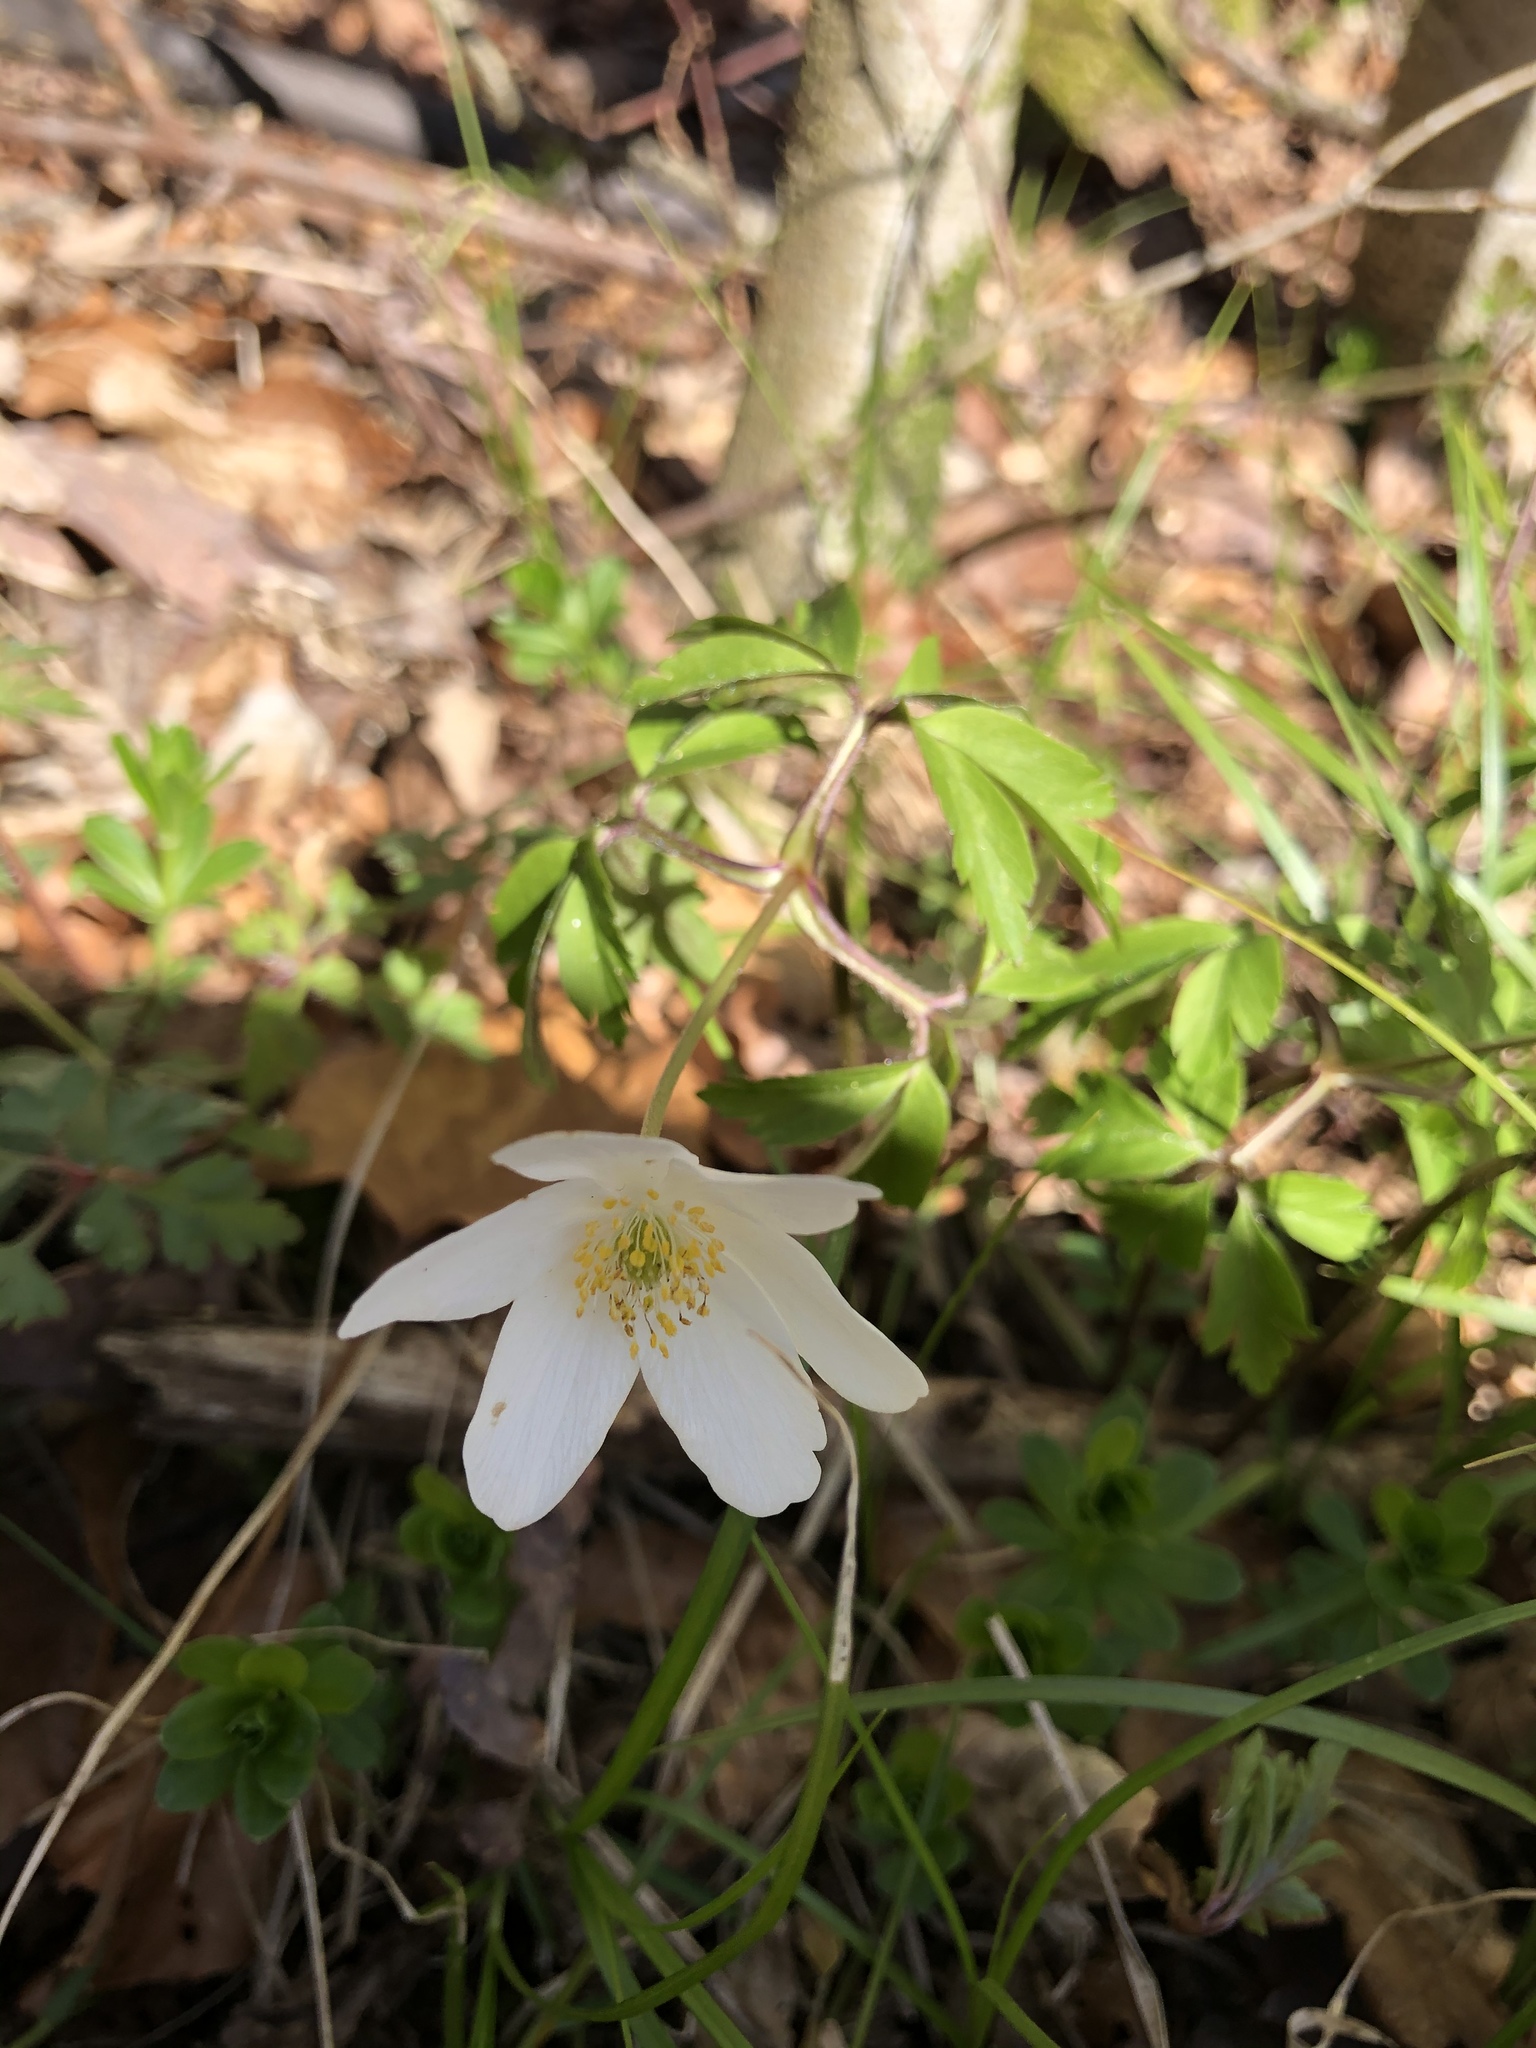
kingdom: Plantae
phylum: Tracheophyta
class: Magnoliopsida
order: Ranunculales
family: Ranunculaceae
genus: Anemone
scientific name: Anemone nemorosa
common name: Wood anemone
